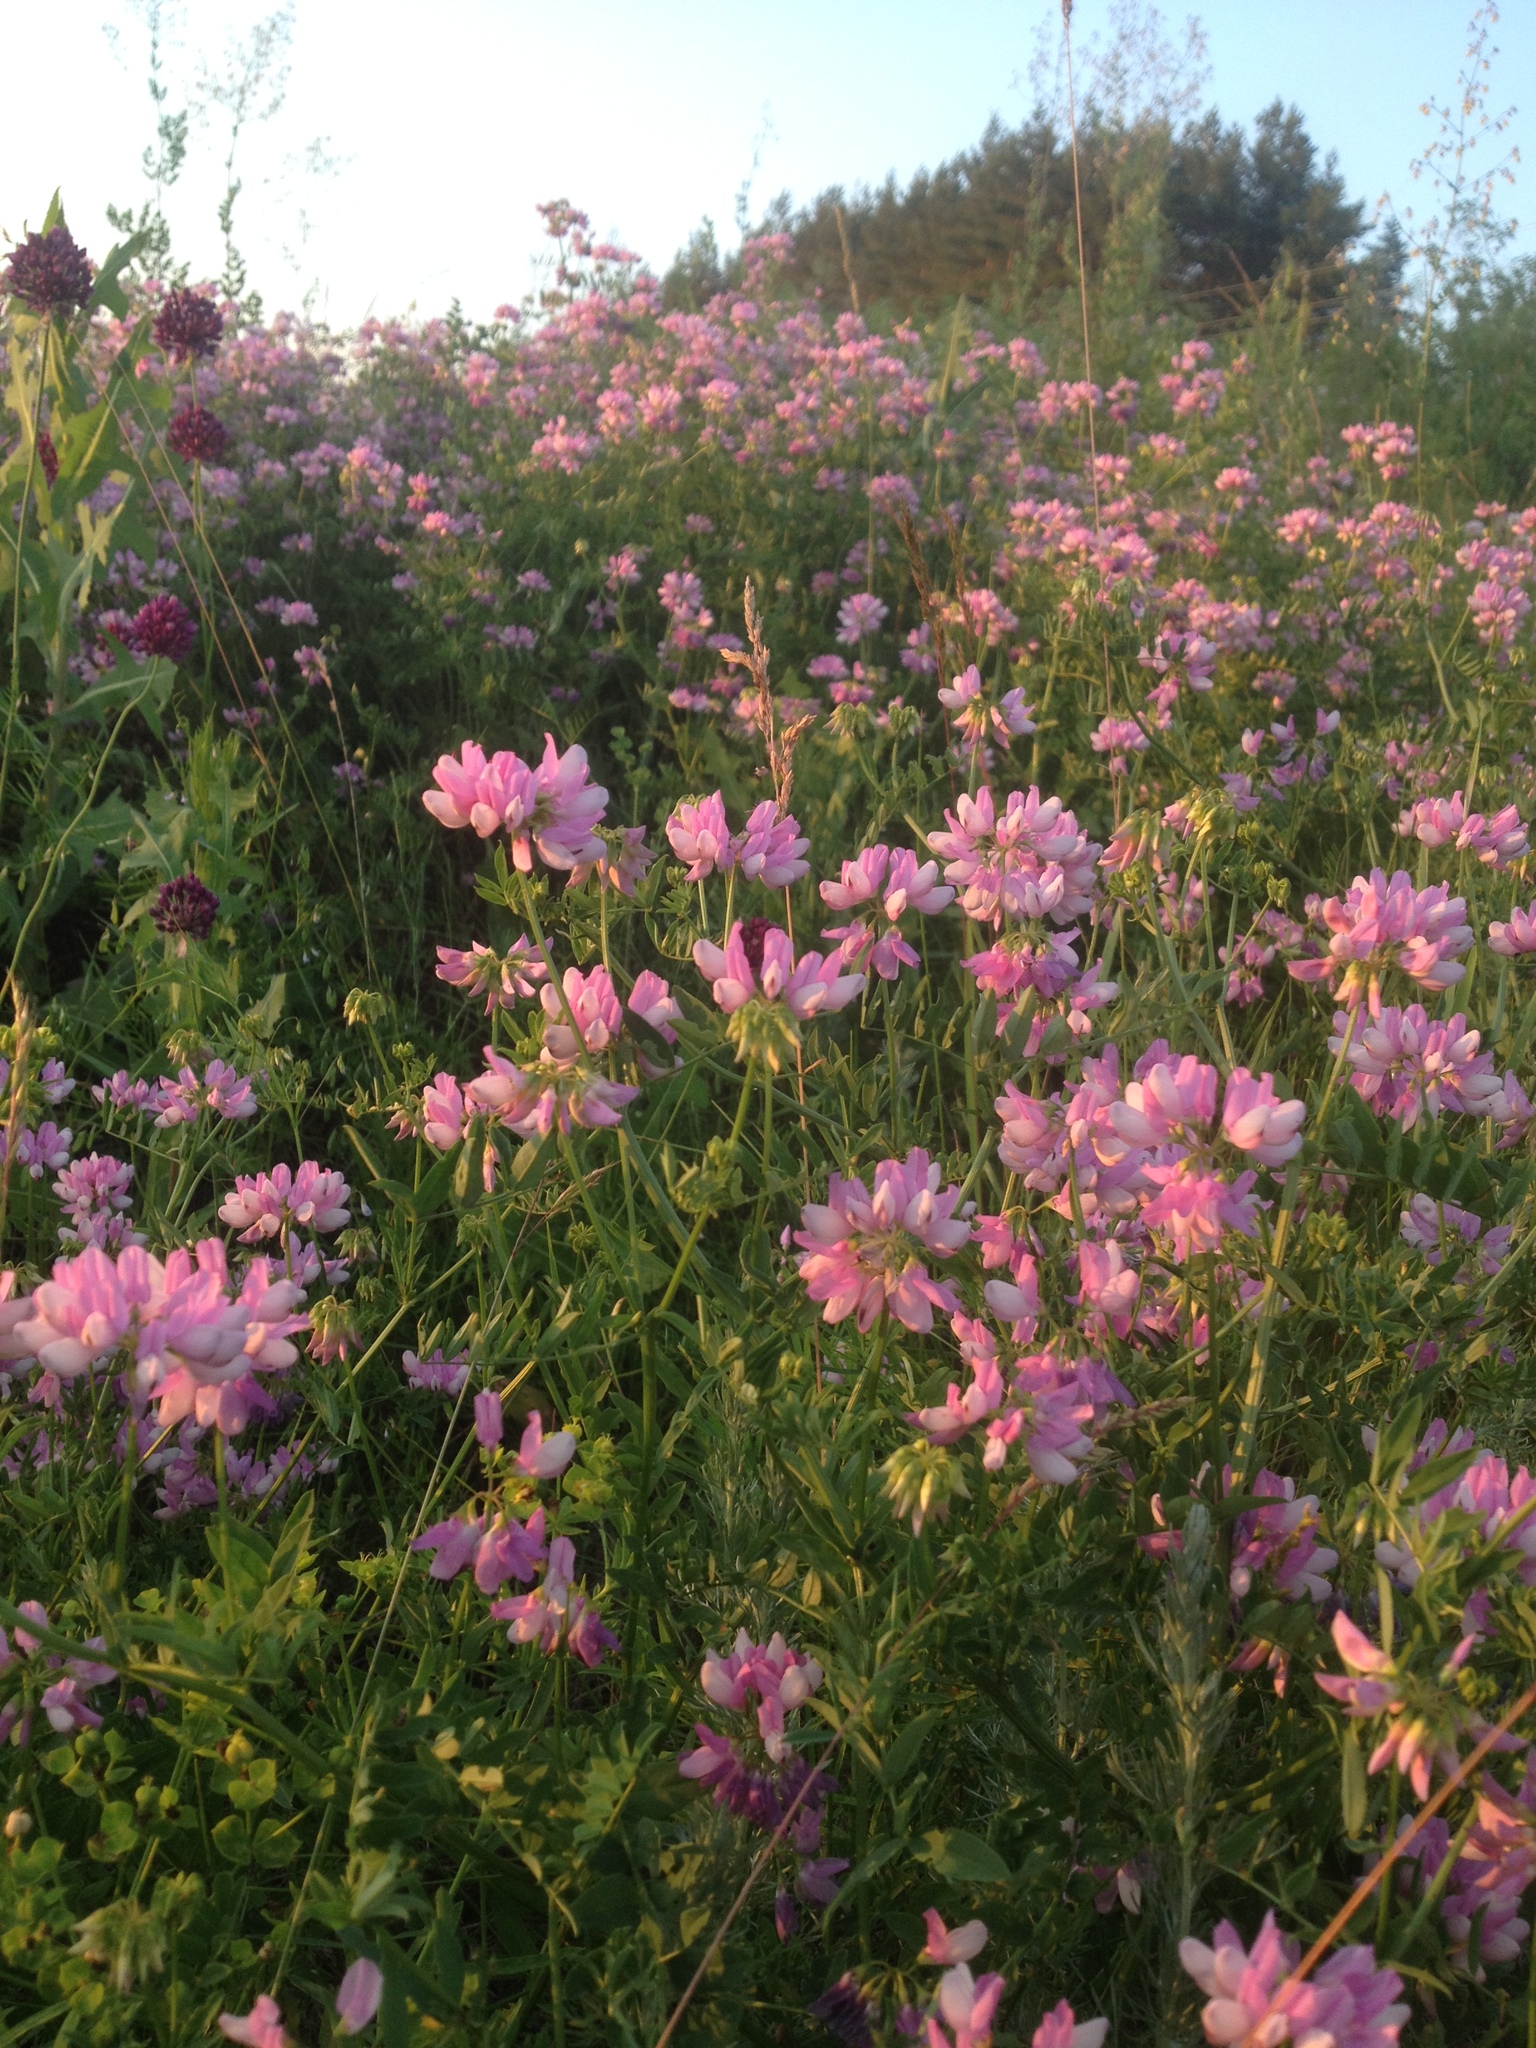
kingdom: Plantae
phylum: Tracheophyta
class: Magnoliopsida
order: Fabales
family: Fabaceae
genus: Coronilla
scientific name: Coronilla varia
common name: Crownvetch
